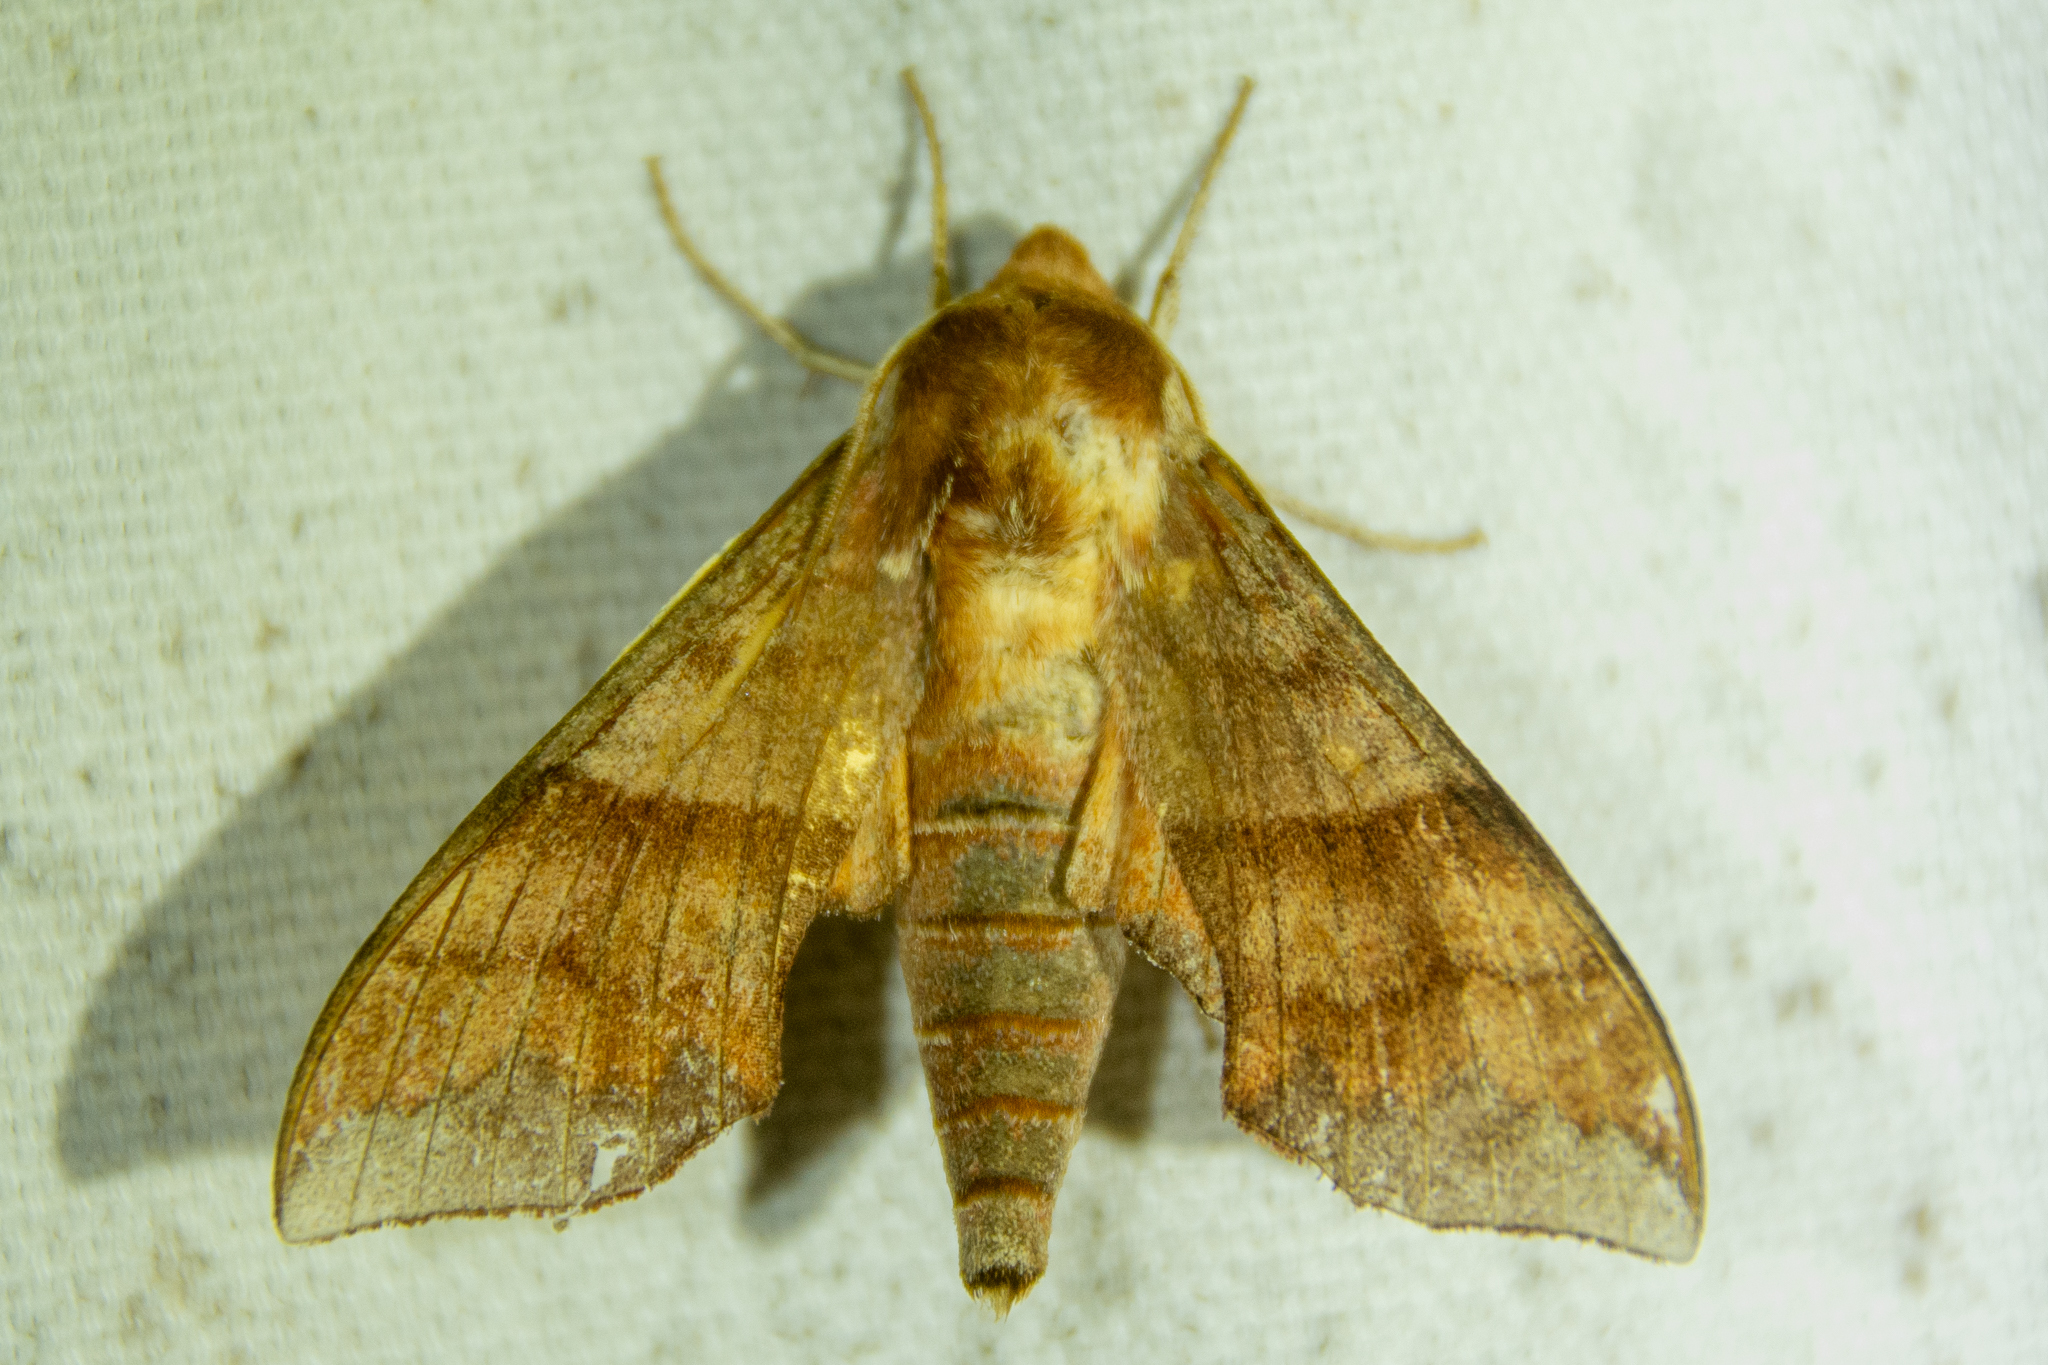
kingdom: Animalia
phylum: Arthropoda
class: Insecta
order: Lepidoptera
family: Sphingidae
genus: Darapsa
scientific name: Darapsa choerilus
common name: Azalea sphinx
